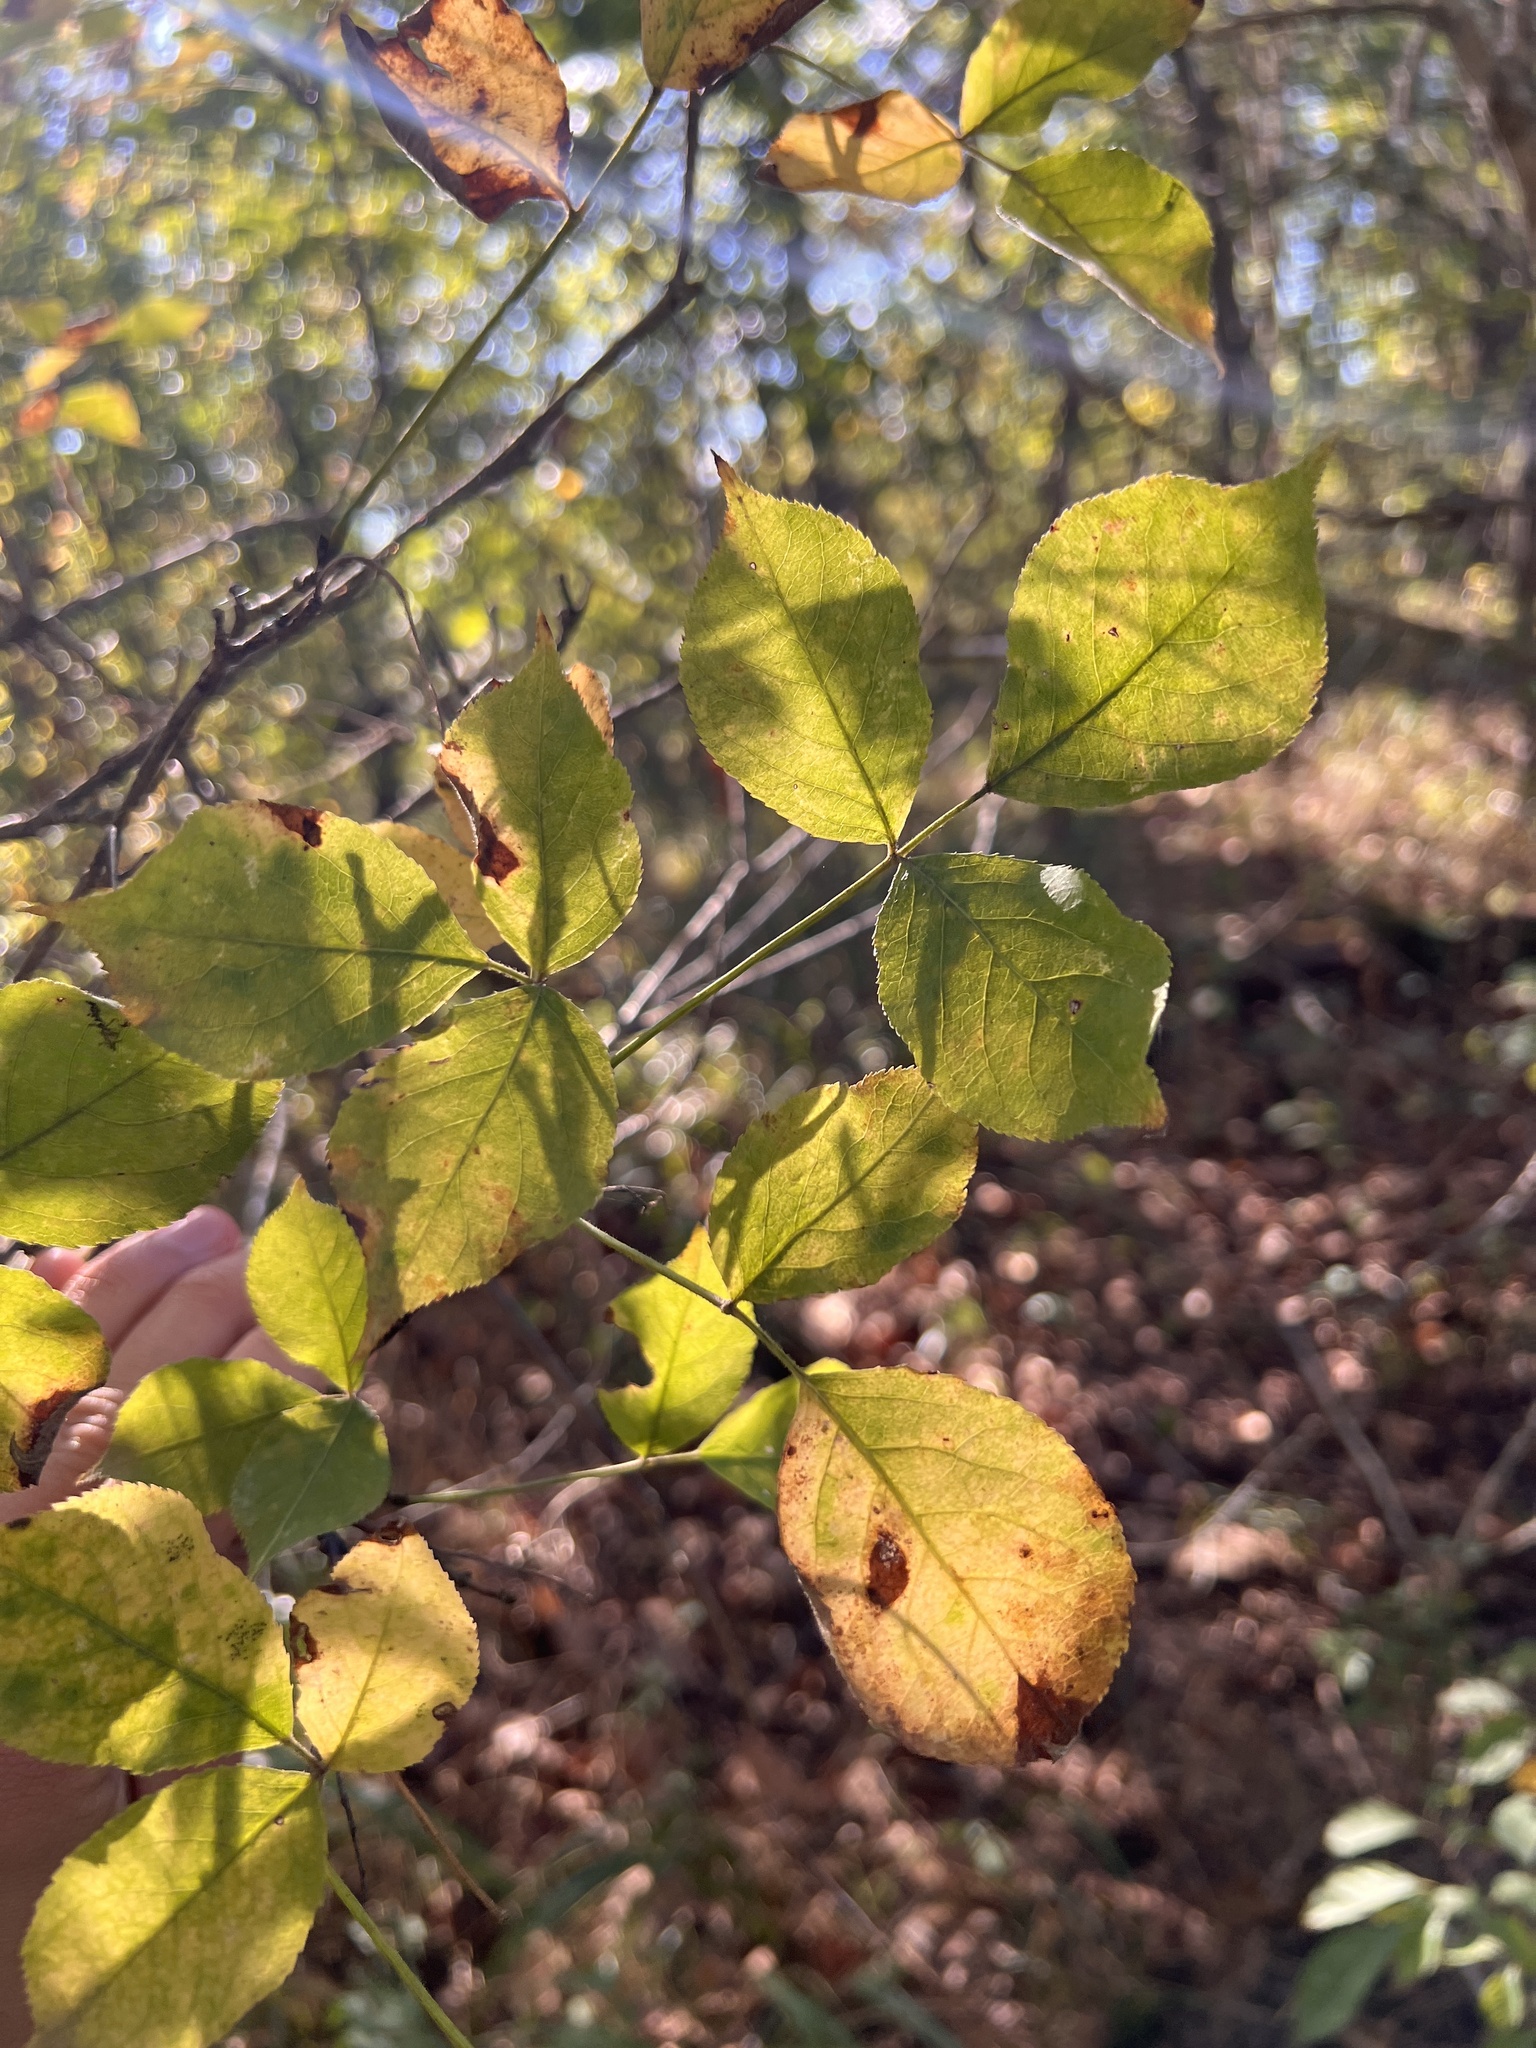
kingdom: Plantae
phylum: Tracheophyta
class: Magnoliopsida
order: Crossosomatales
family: Staphyleaceae
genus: Staphylea
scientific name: Staphylea trifolia
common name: American bladdernut
